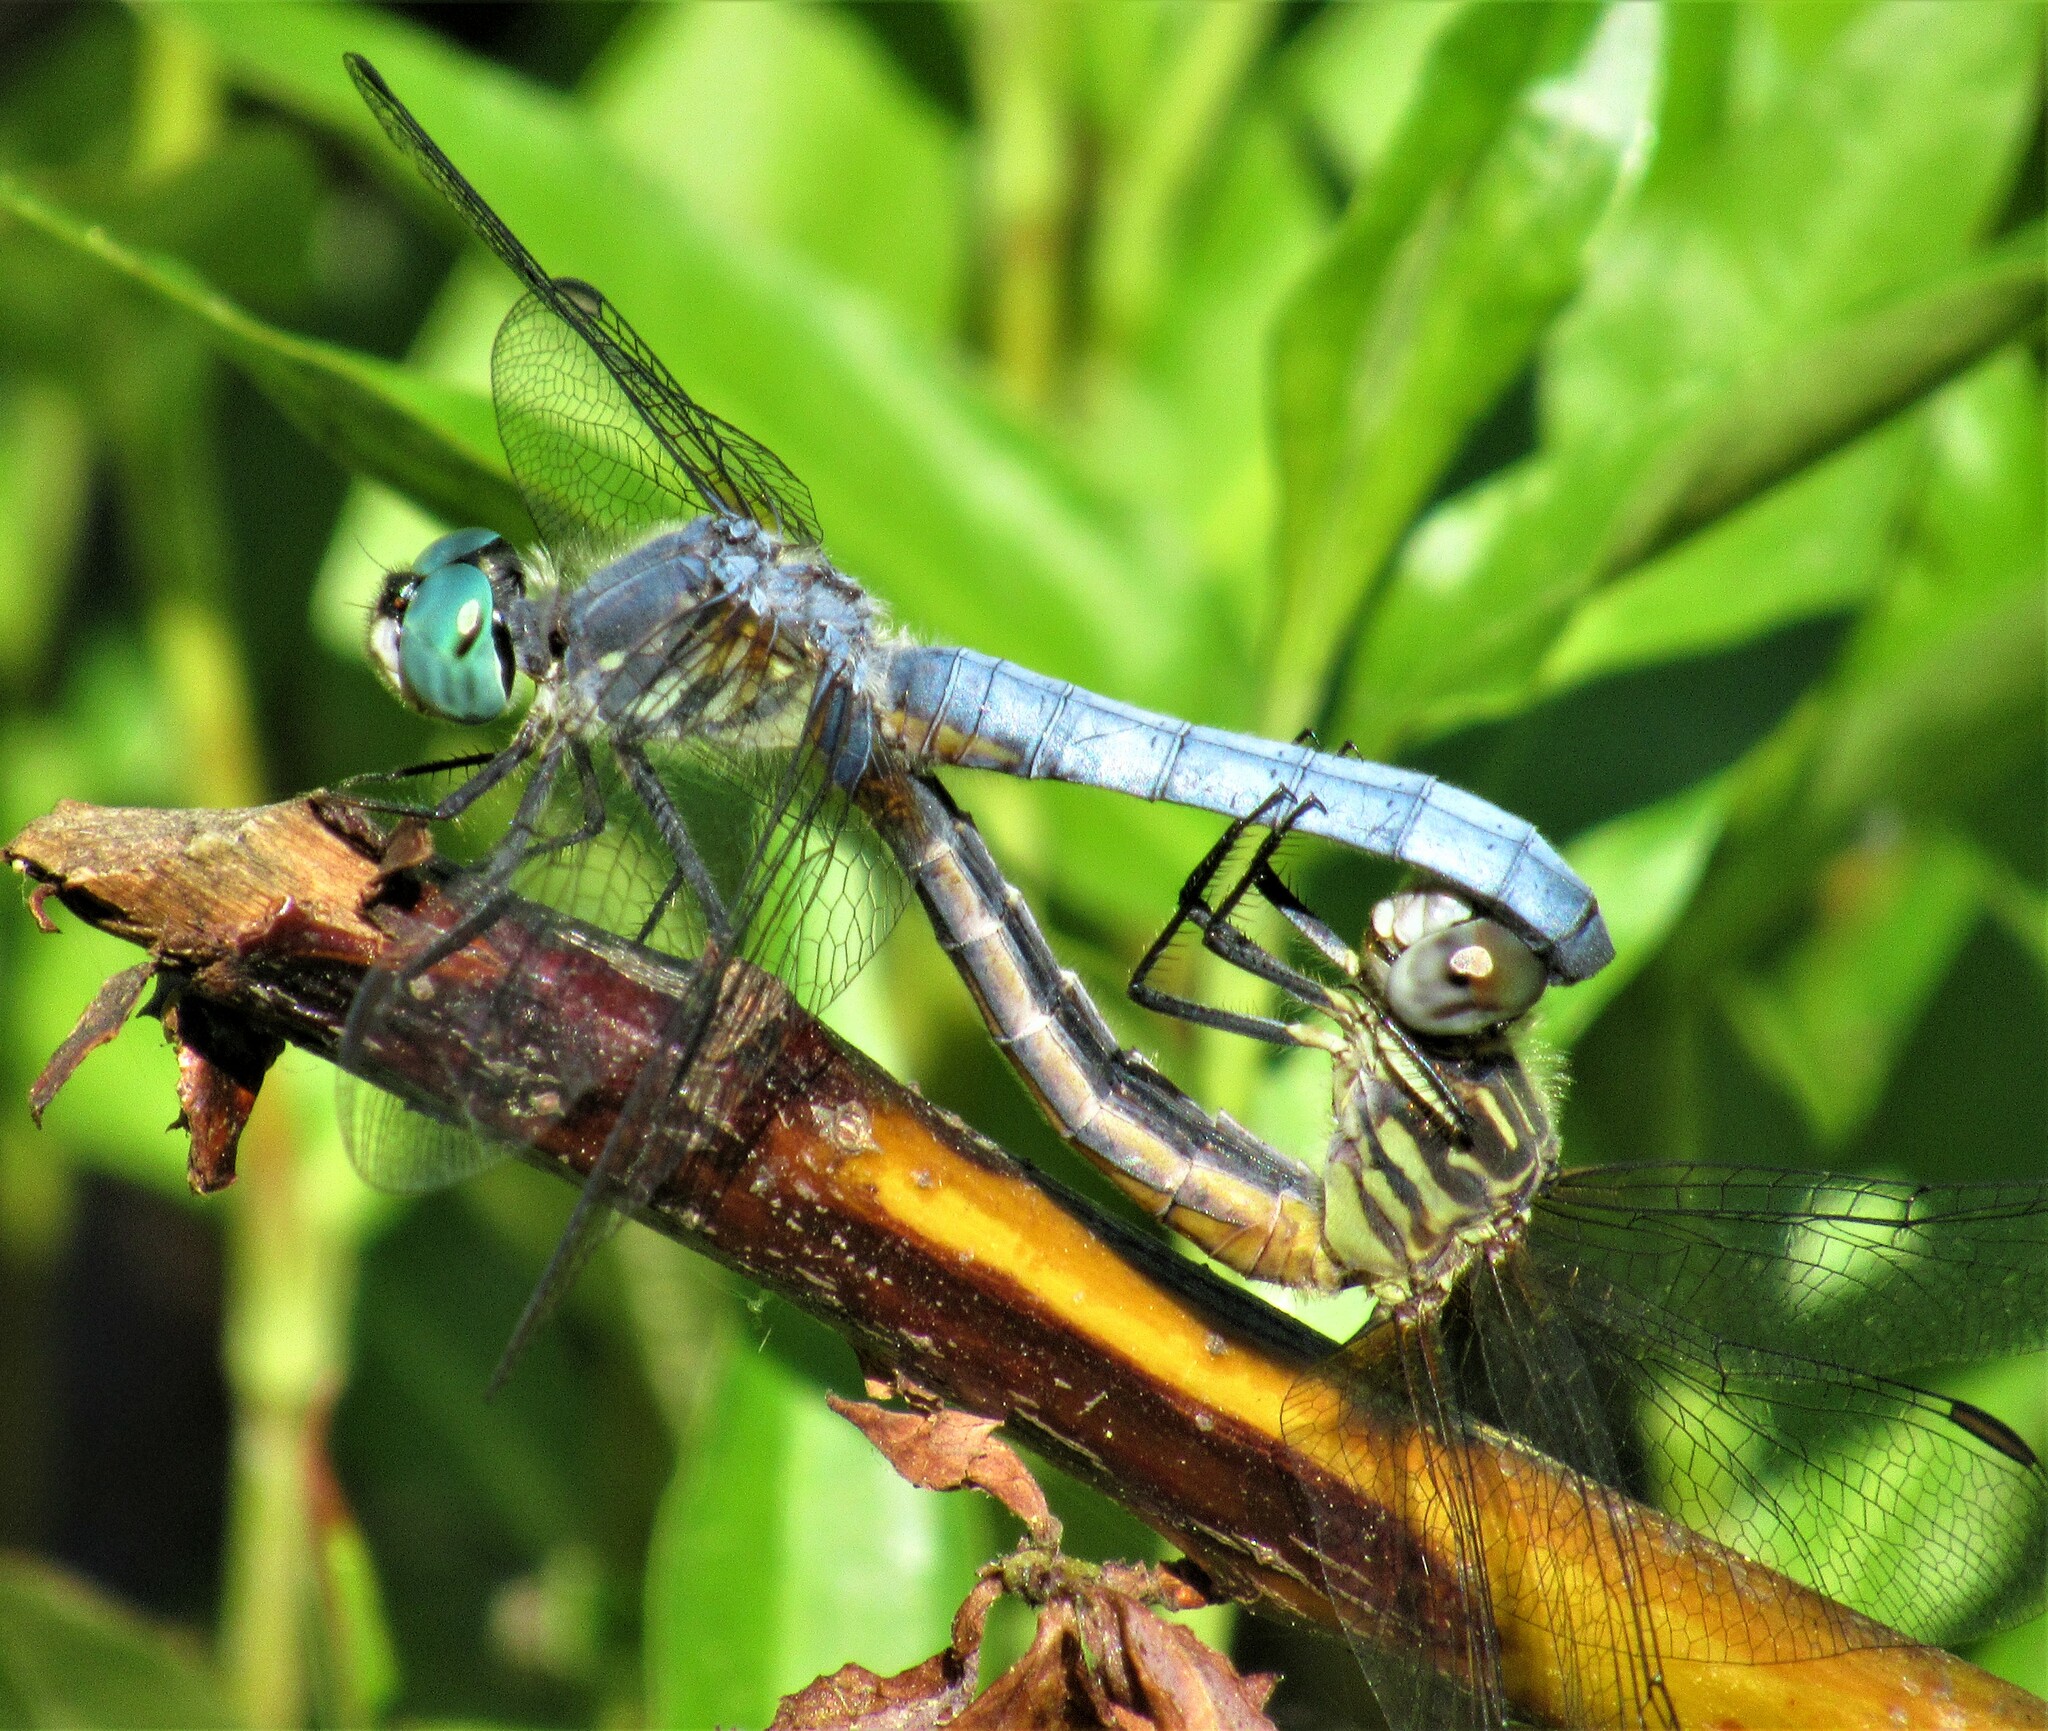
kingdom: Animalia
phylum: Arthropoda
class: Insecta
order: Odonata
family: Libellulidae
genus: Pachydiplax
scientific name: Pachydiplax longipennis
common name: Blue dasher
